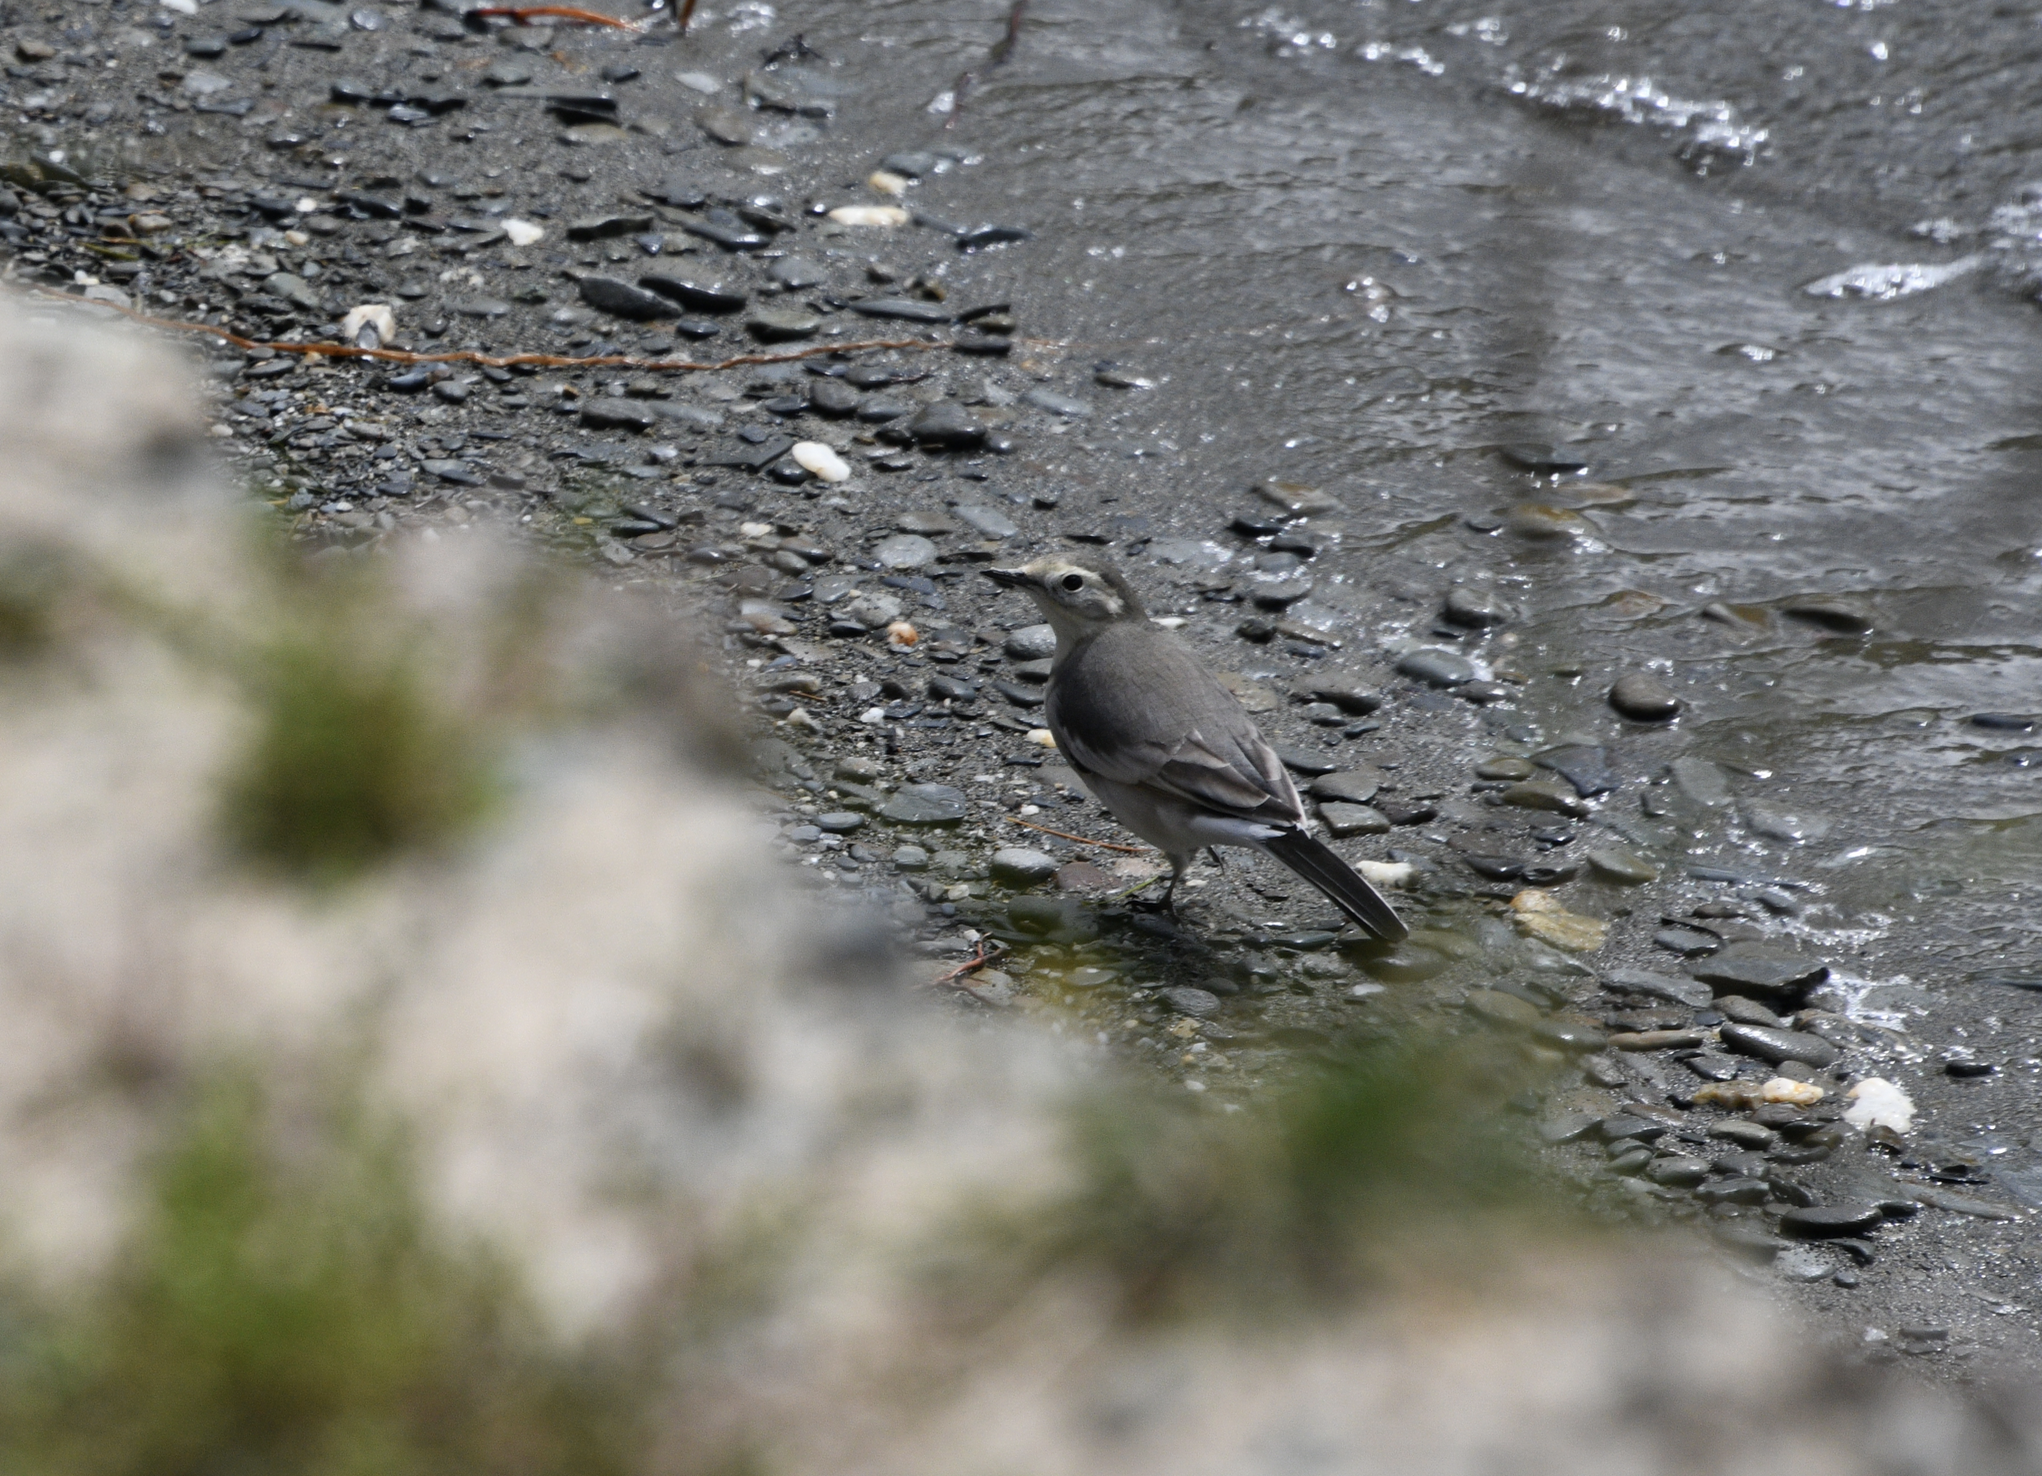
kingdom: Animalia
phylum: Chordata
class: Aves
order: Passeriformes
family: Motacillidae
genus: Motacilla
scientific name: Motacilla alba
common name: White wagtail
